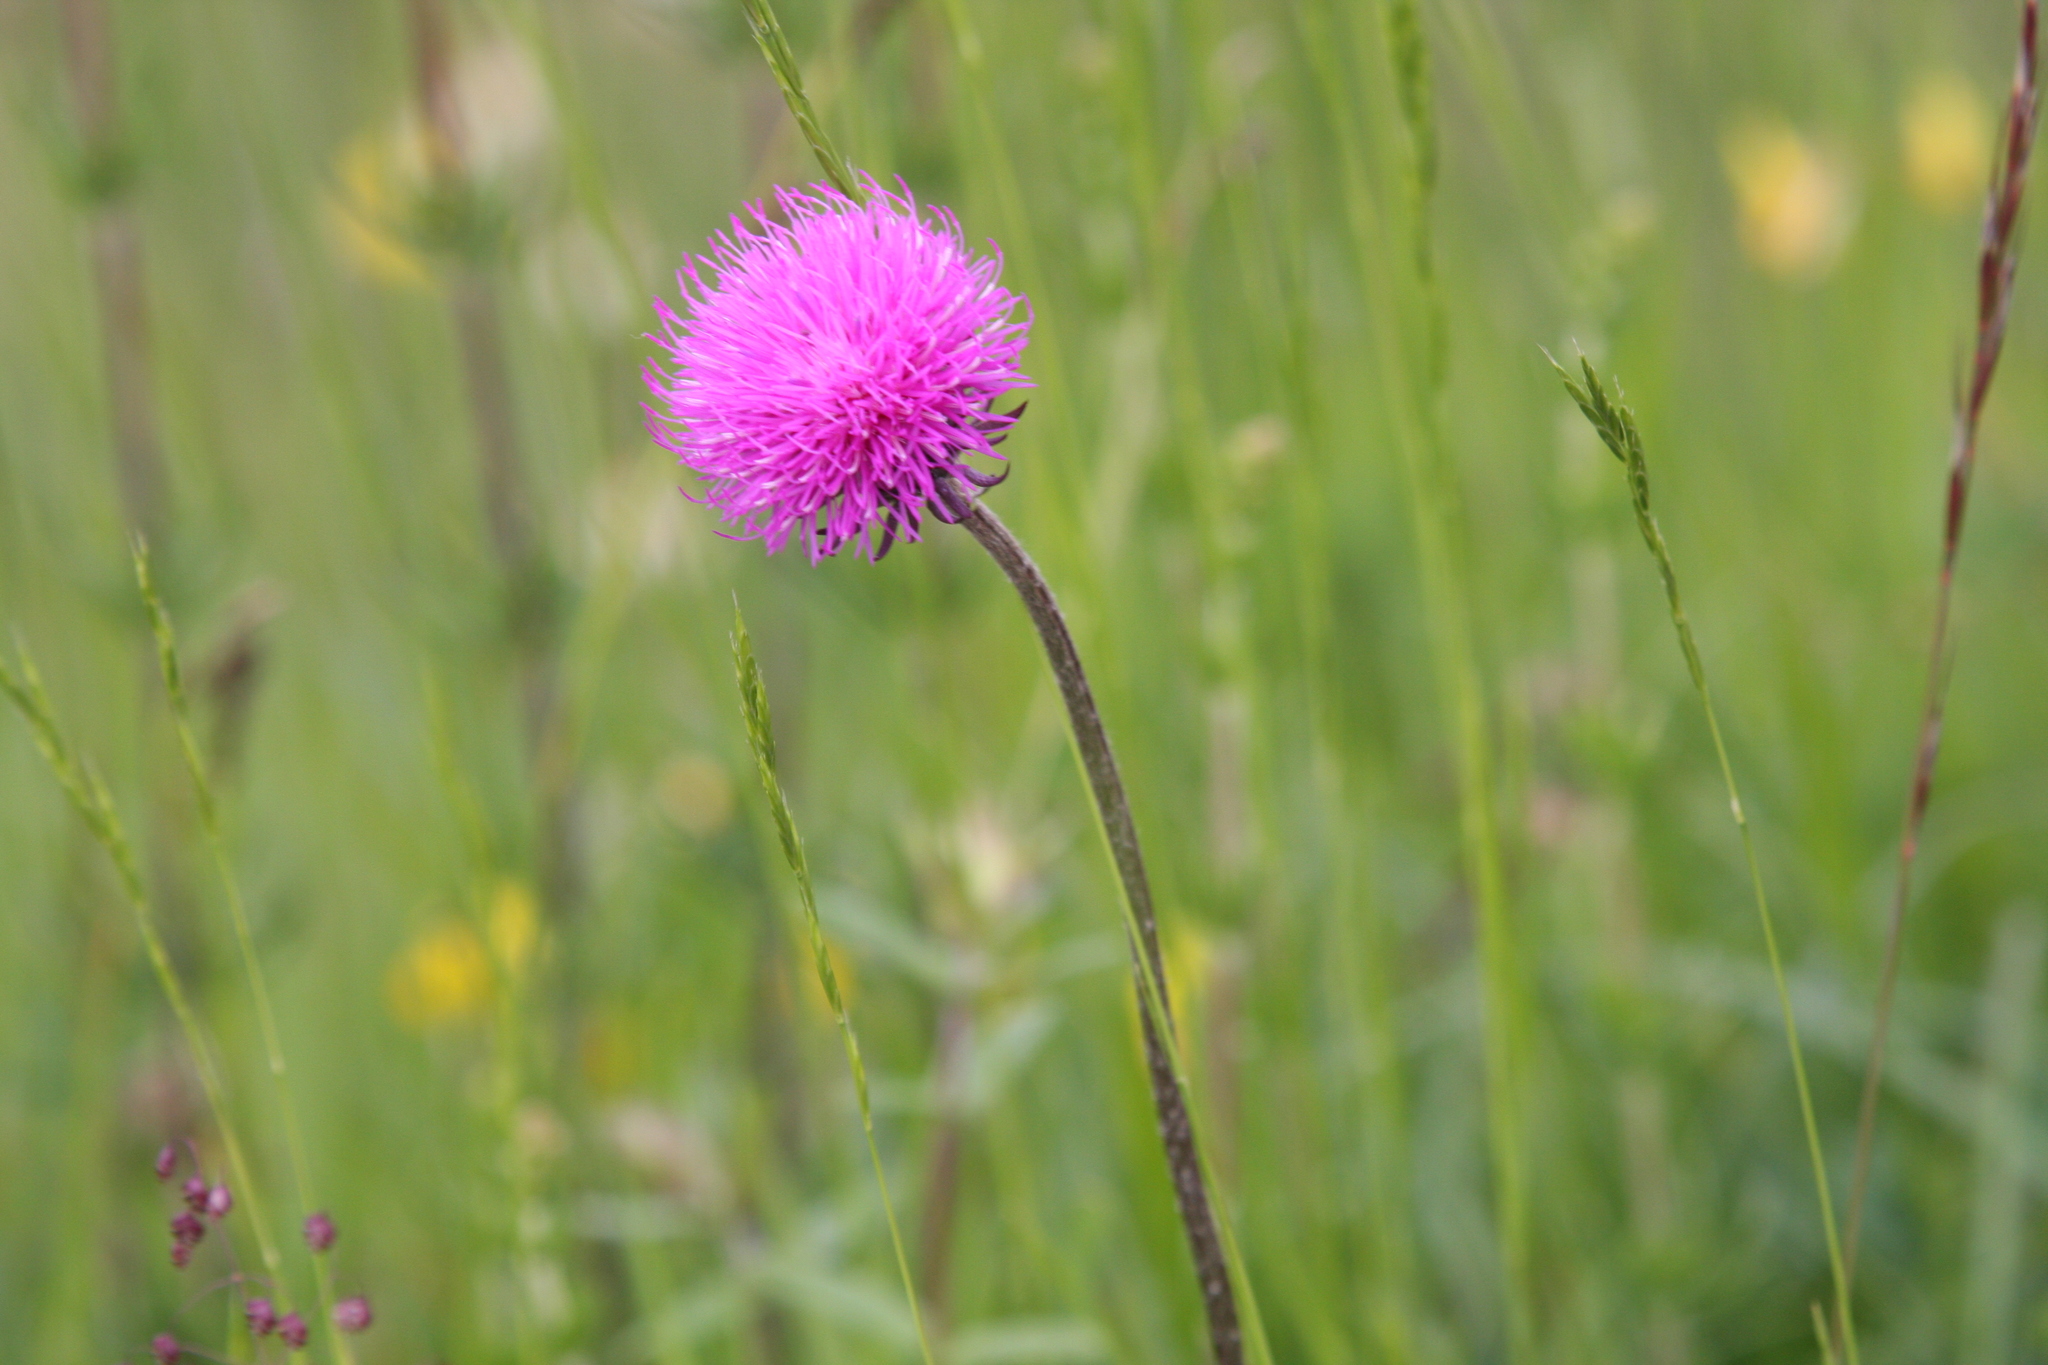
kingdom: Plantae
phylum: Tracheophyta
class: Magnoliopsida
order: Asterales
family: Asteraceae
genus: Carduus
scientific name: Carduus defloratus
